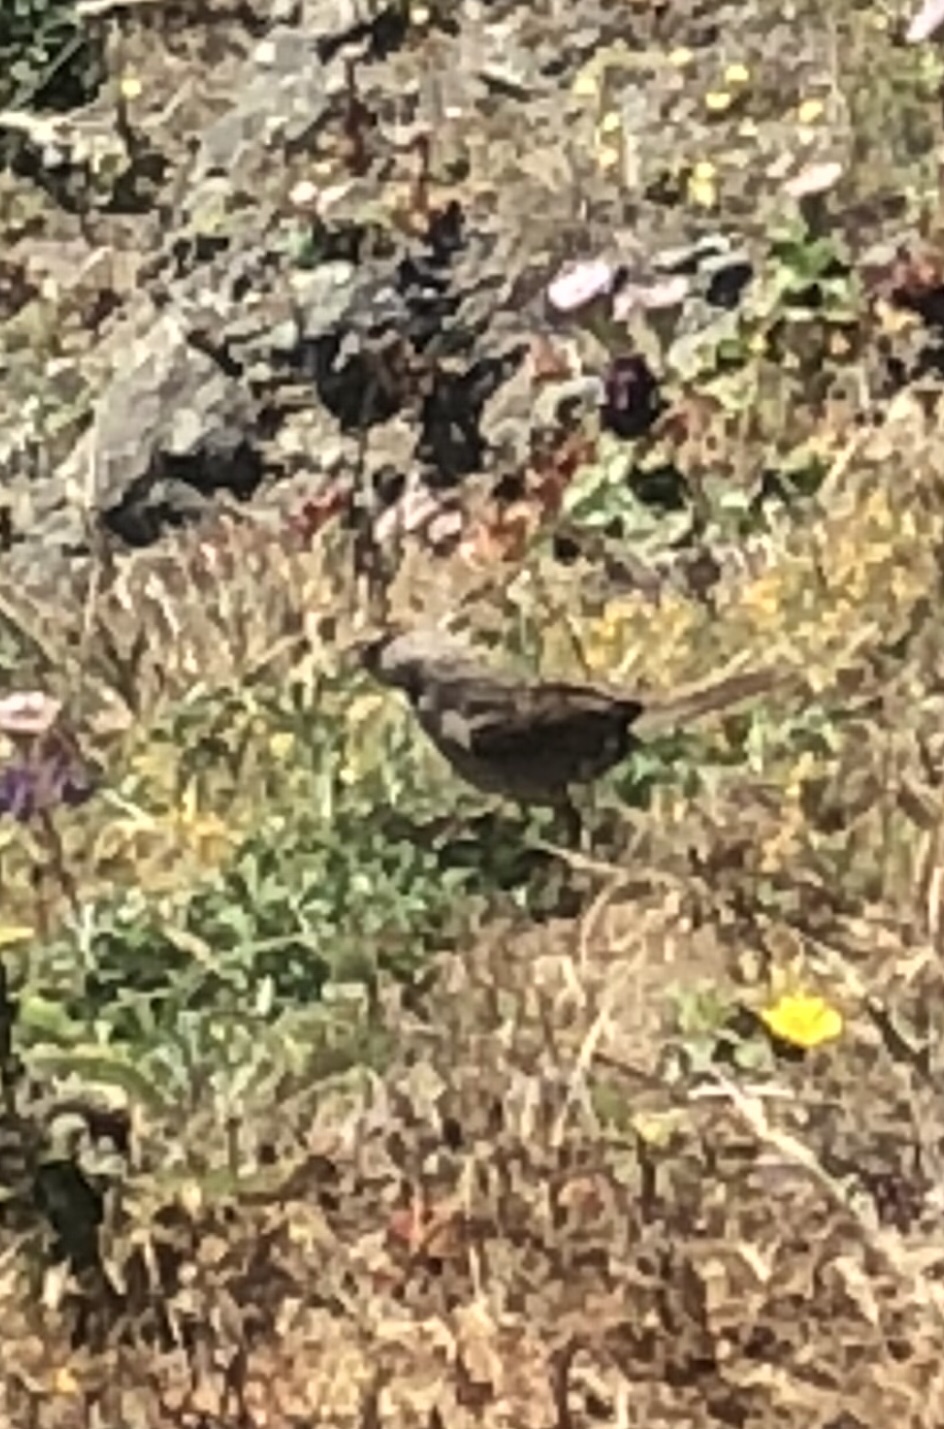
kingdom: Animalia
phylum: Chordata
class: Aves
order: Passeriformes
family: Passerellidae
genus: Zonotrichia
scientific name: Zonotrichia leucophrys
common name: White-crowned sparrow
